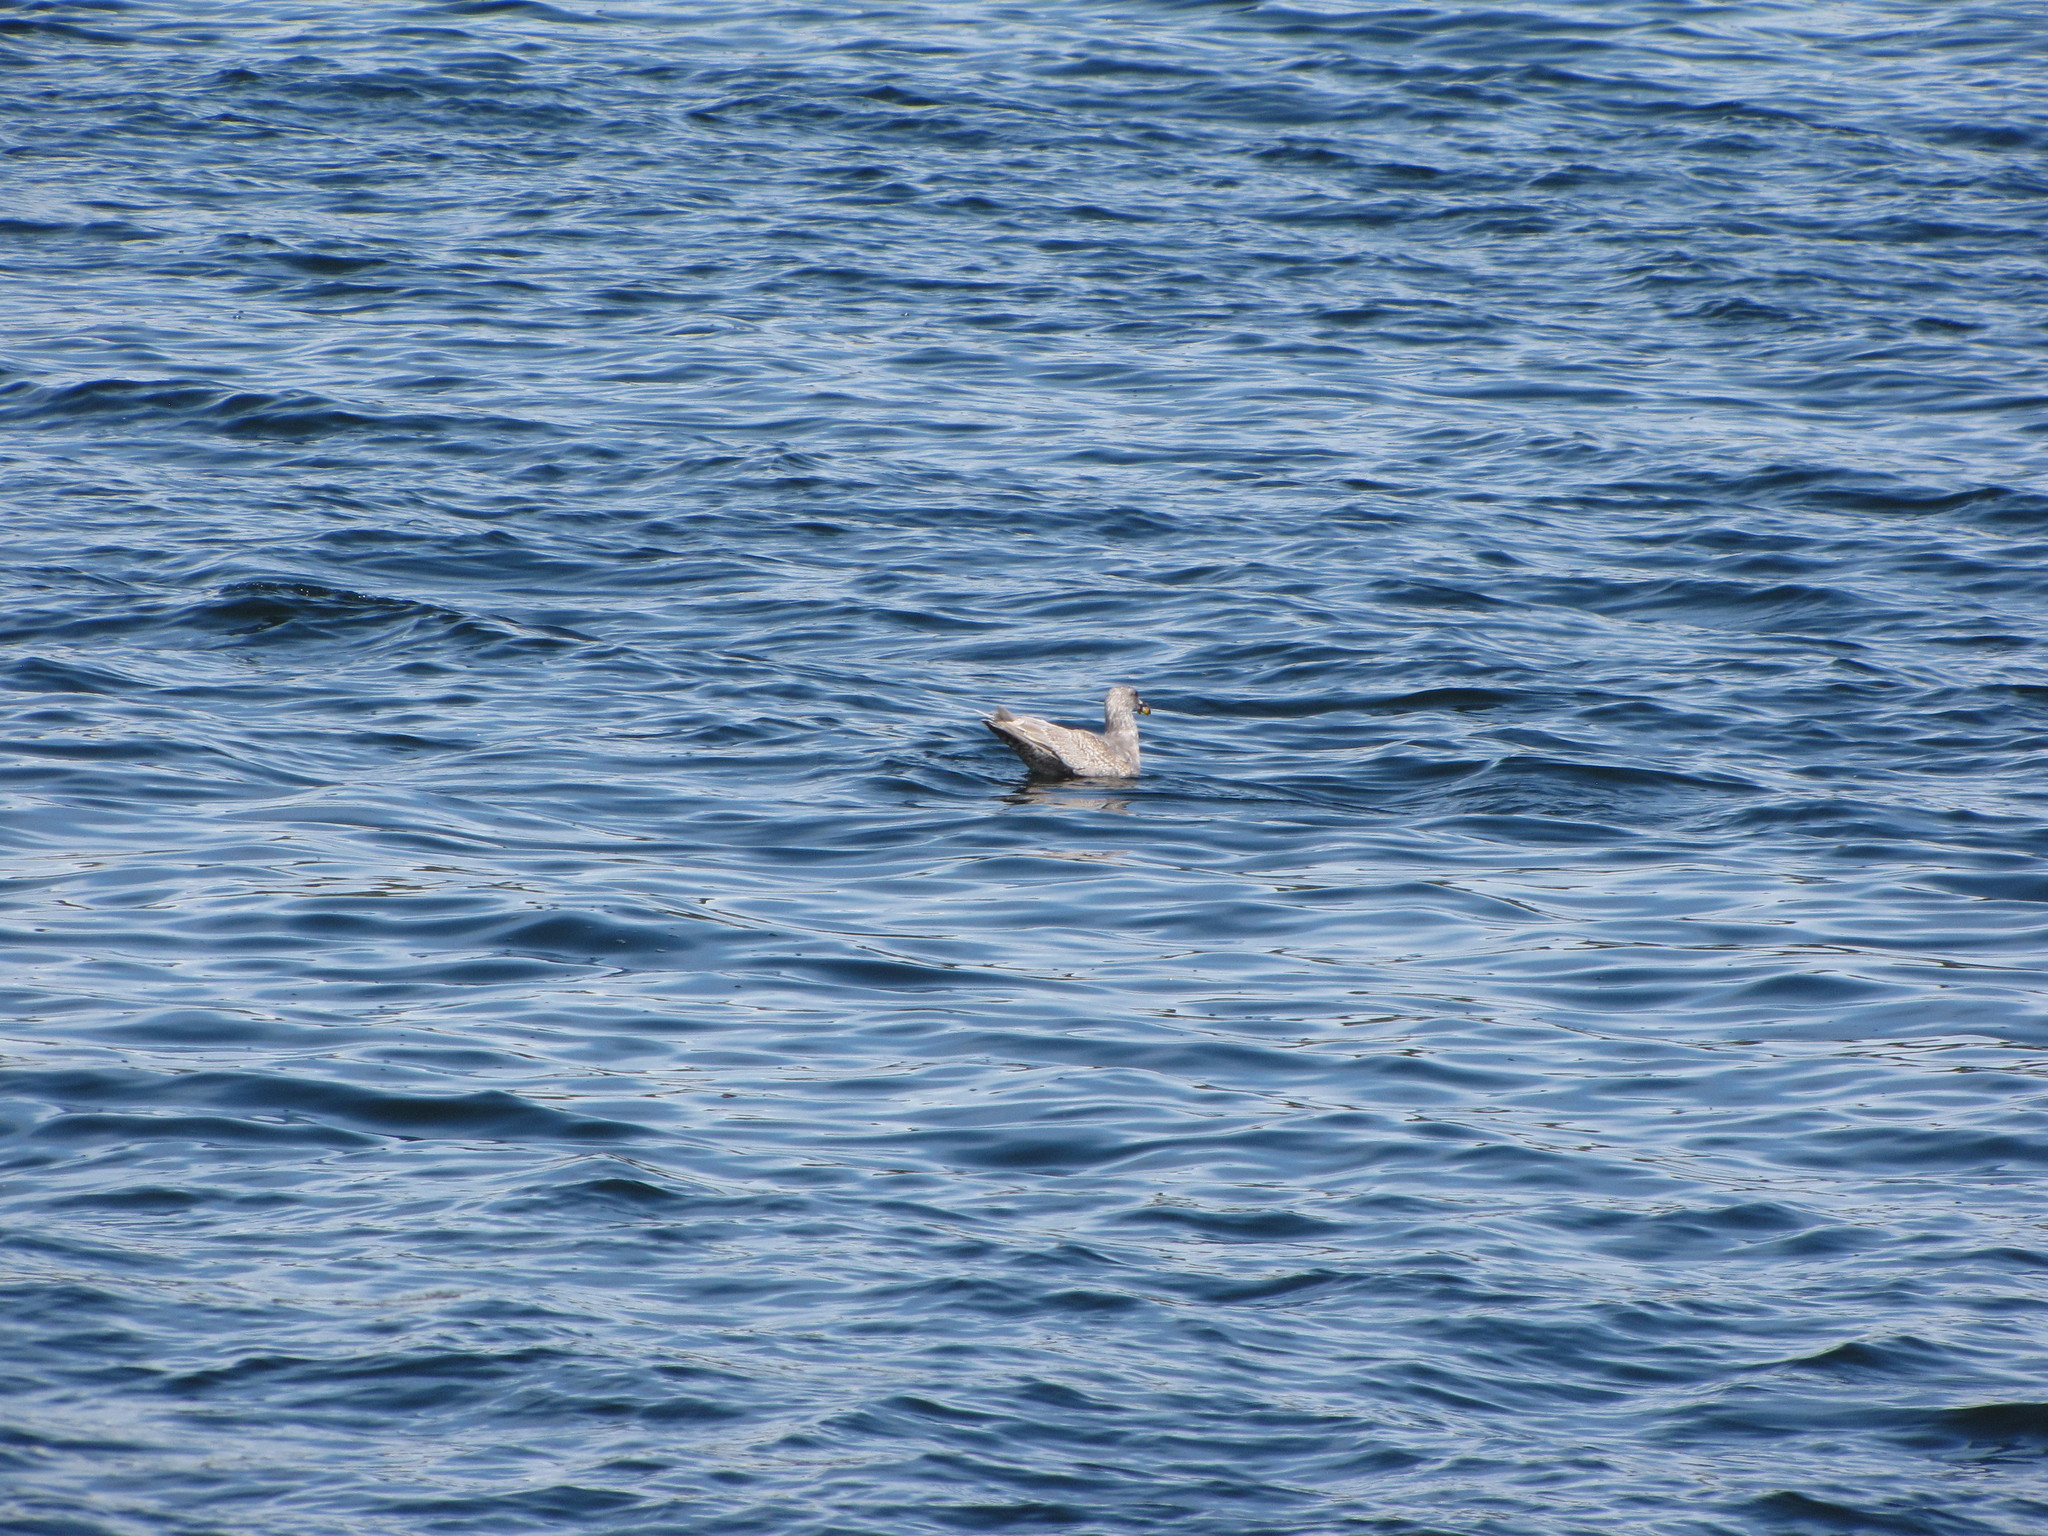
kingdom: Animalia
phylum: Chordata
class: Aves
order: Charadriiformes
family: Laridae
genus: Larus
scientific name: Larus glaucescens
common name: Glaucous-winged gull
